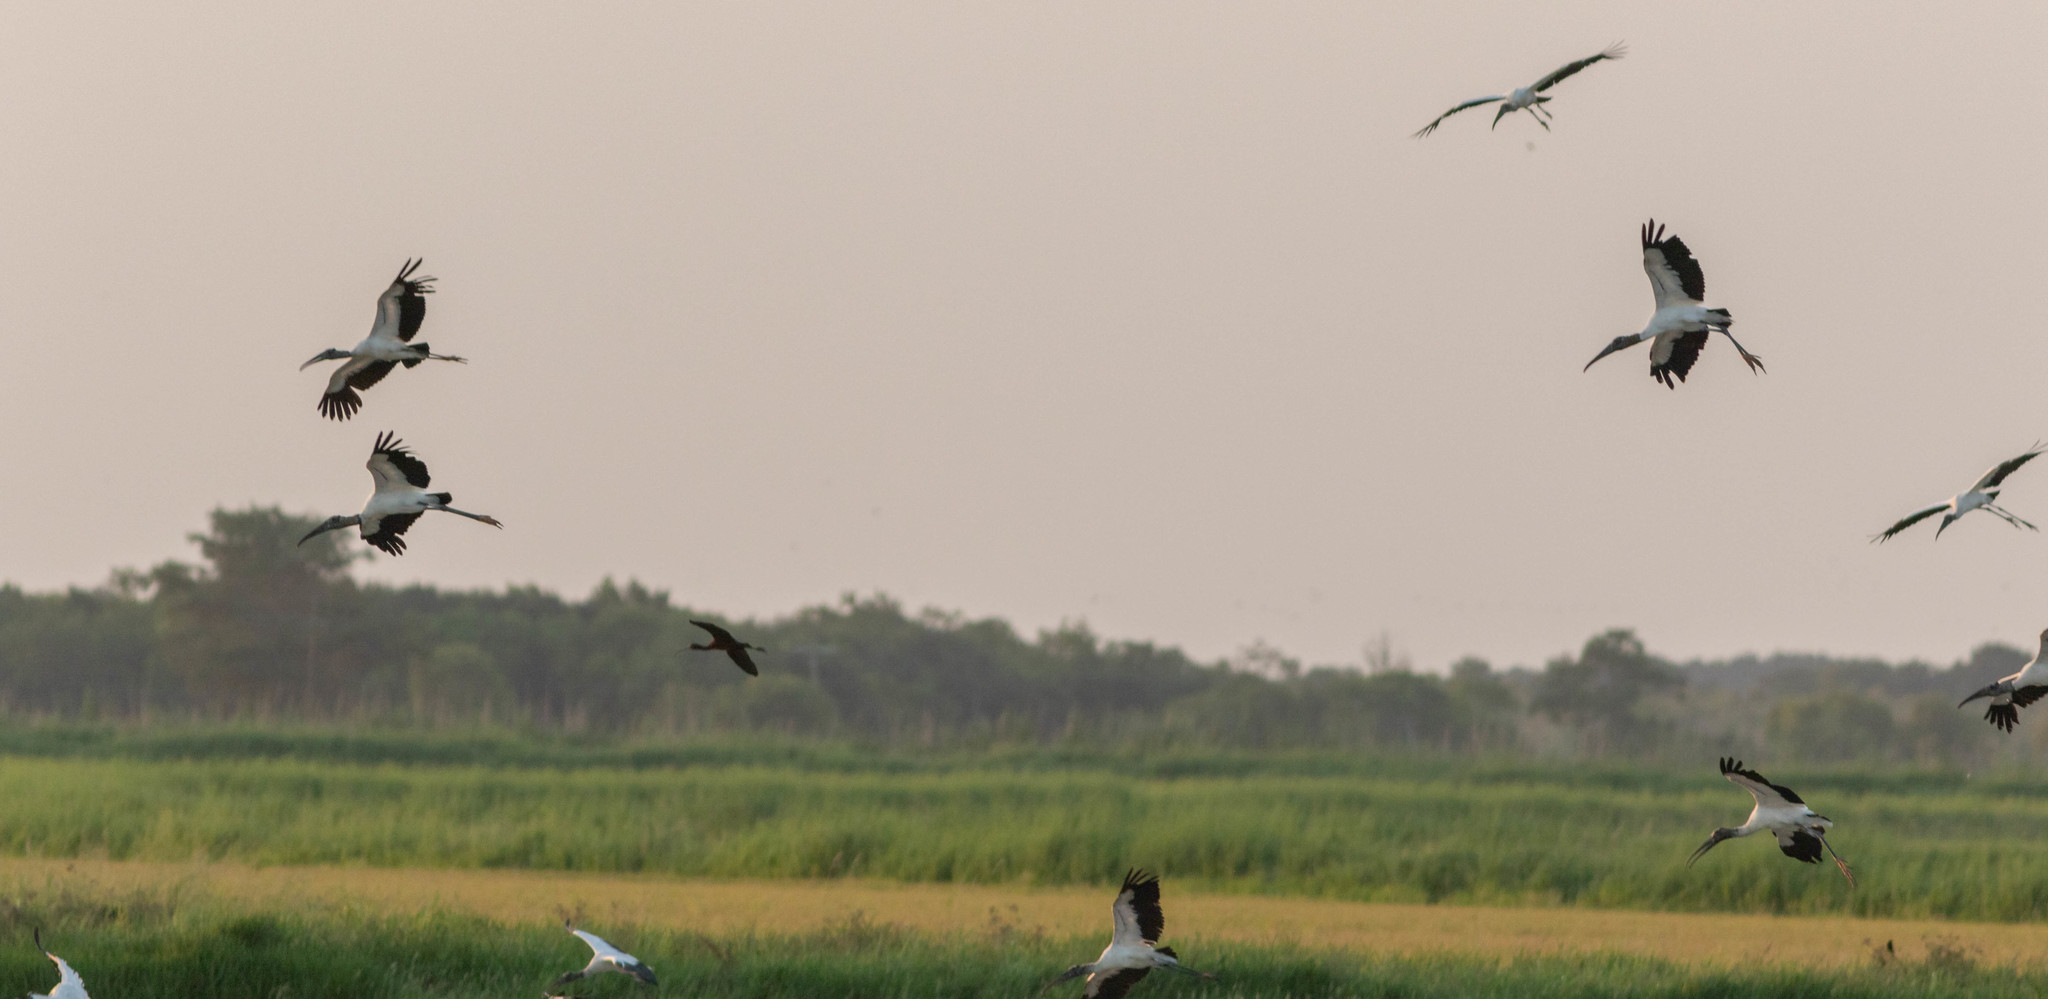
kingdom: Animalia
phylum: Chordata
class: Aves
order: Ciconiiformes
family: Ciconiidae
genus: Mycteria
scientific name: Mycteria americana
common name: Wood stork
